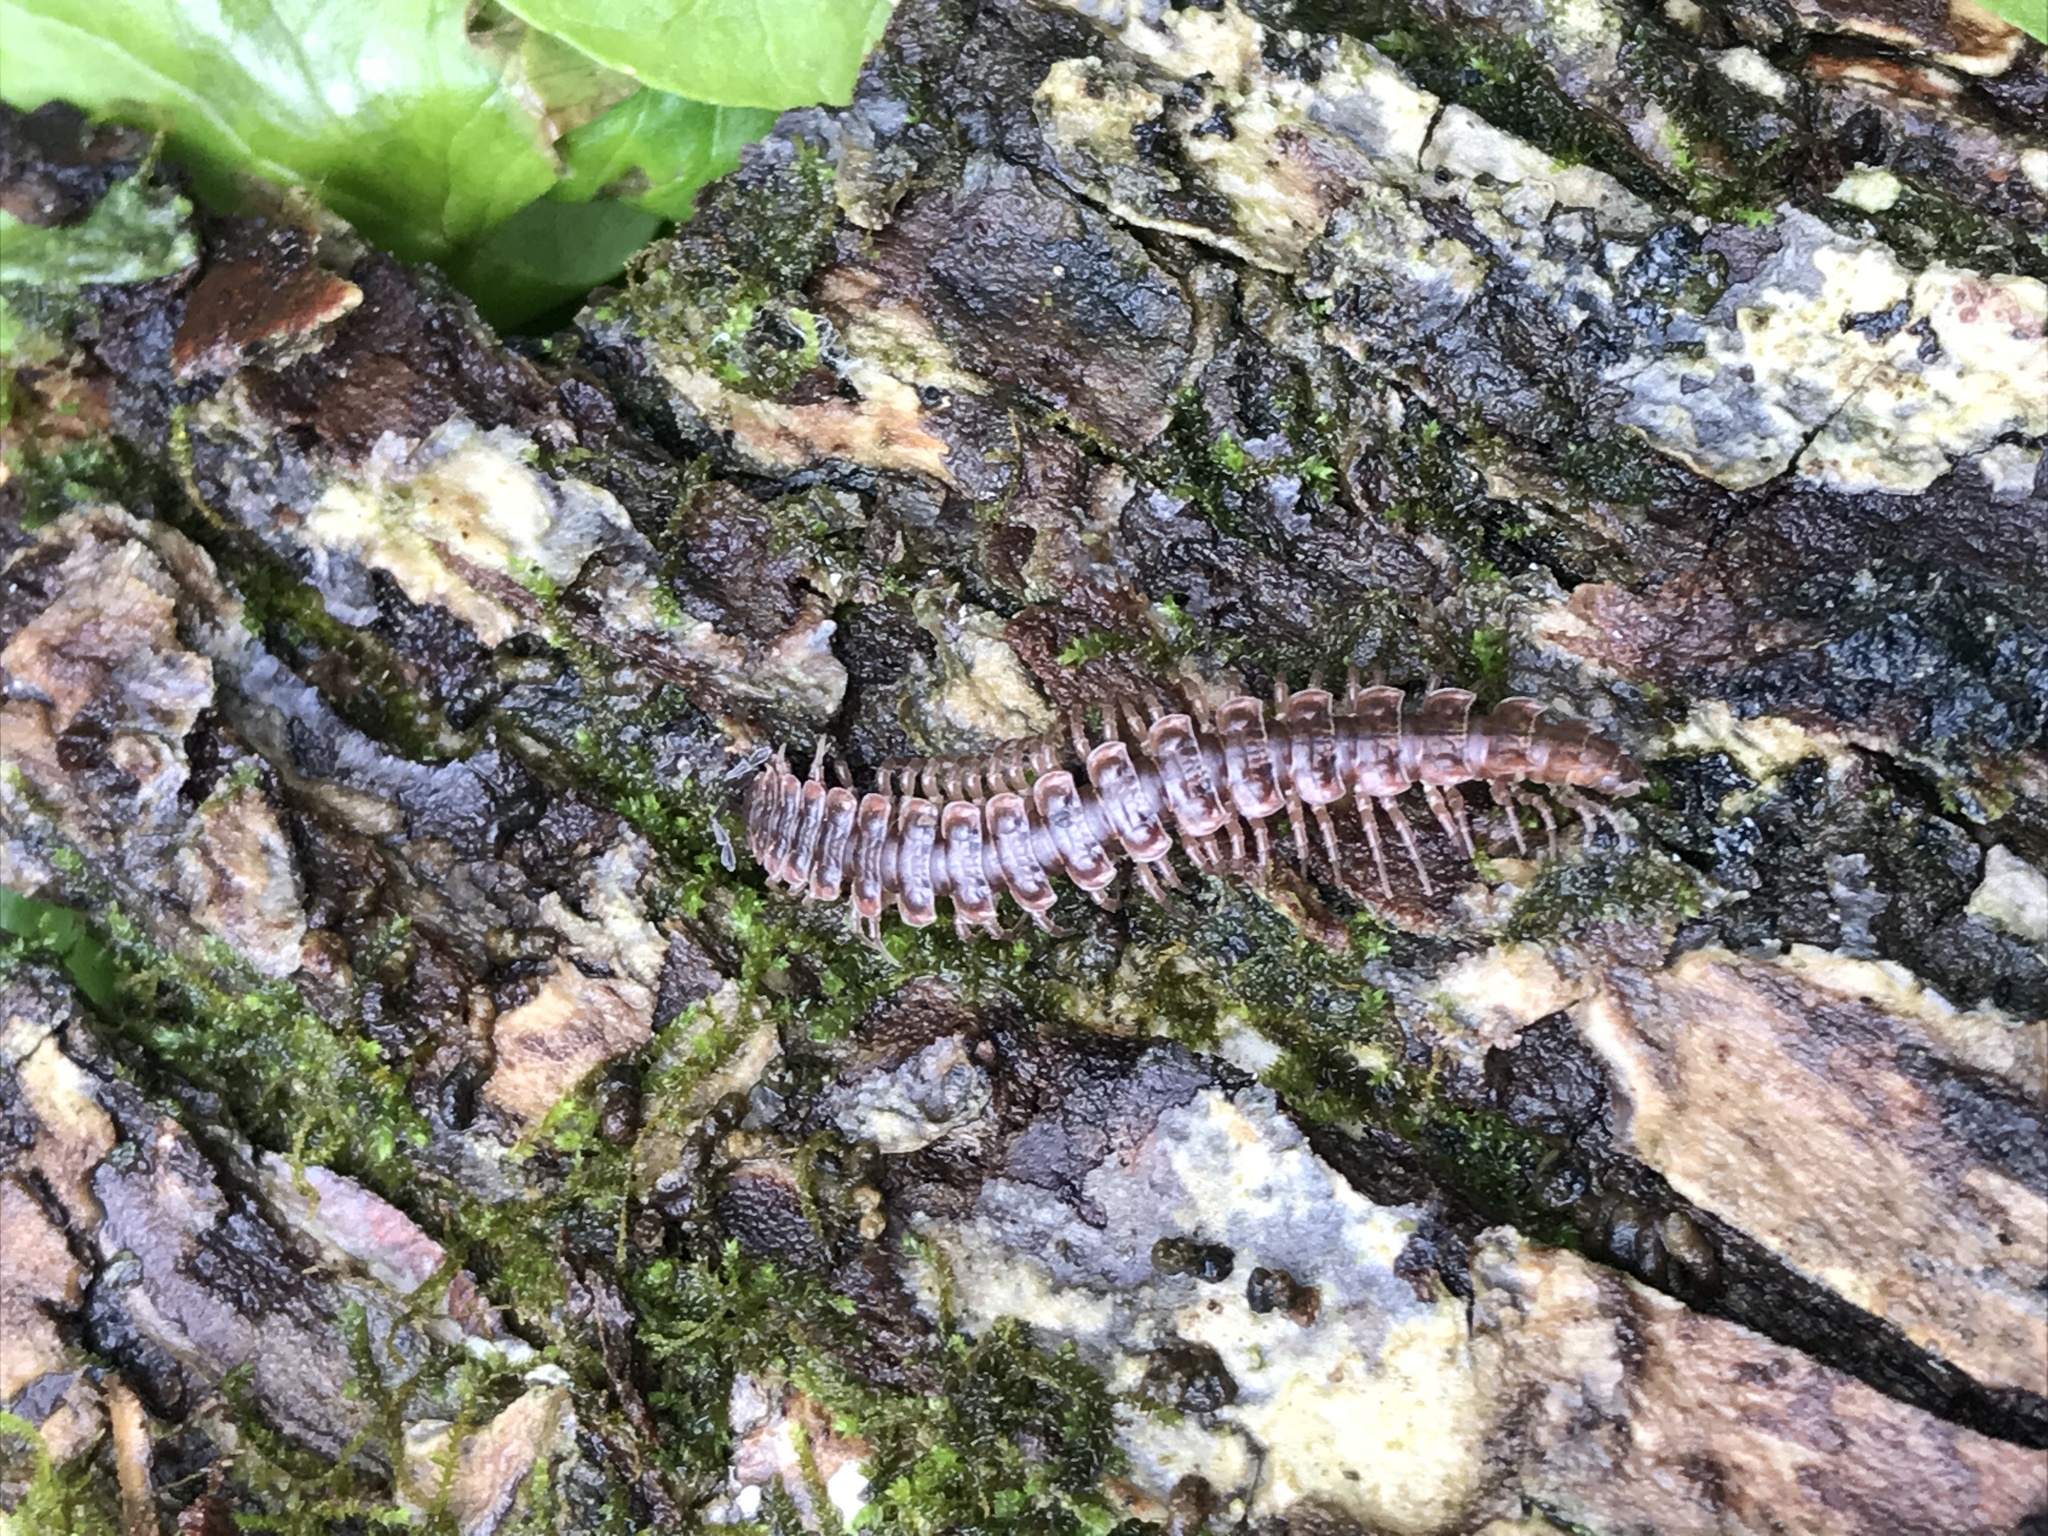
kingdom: Animalia
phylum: Arthropoda
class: Diplopoda
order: Polydesmida
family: Polydesmidae
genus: Pseudopolydesmus
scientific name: Pseudopolydesmus serratus
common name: Common pink flat-back millipede
